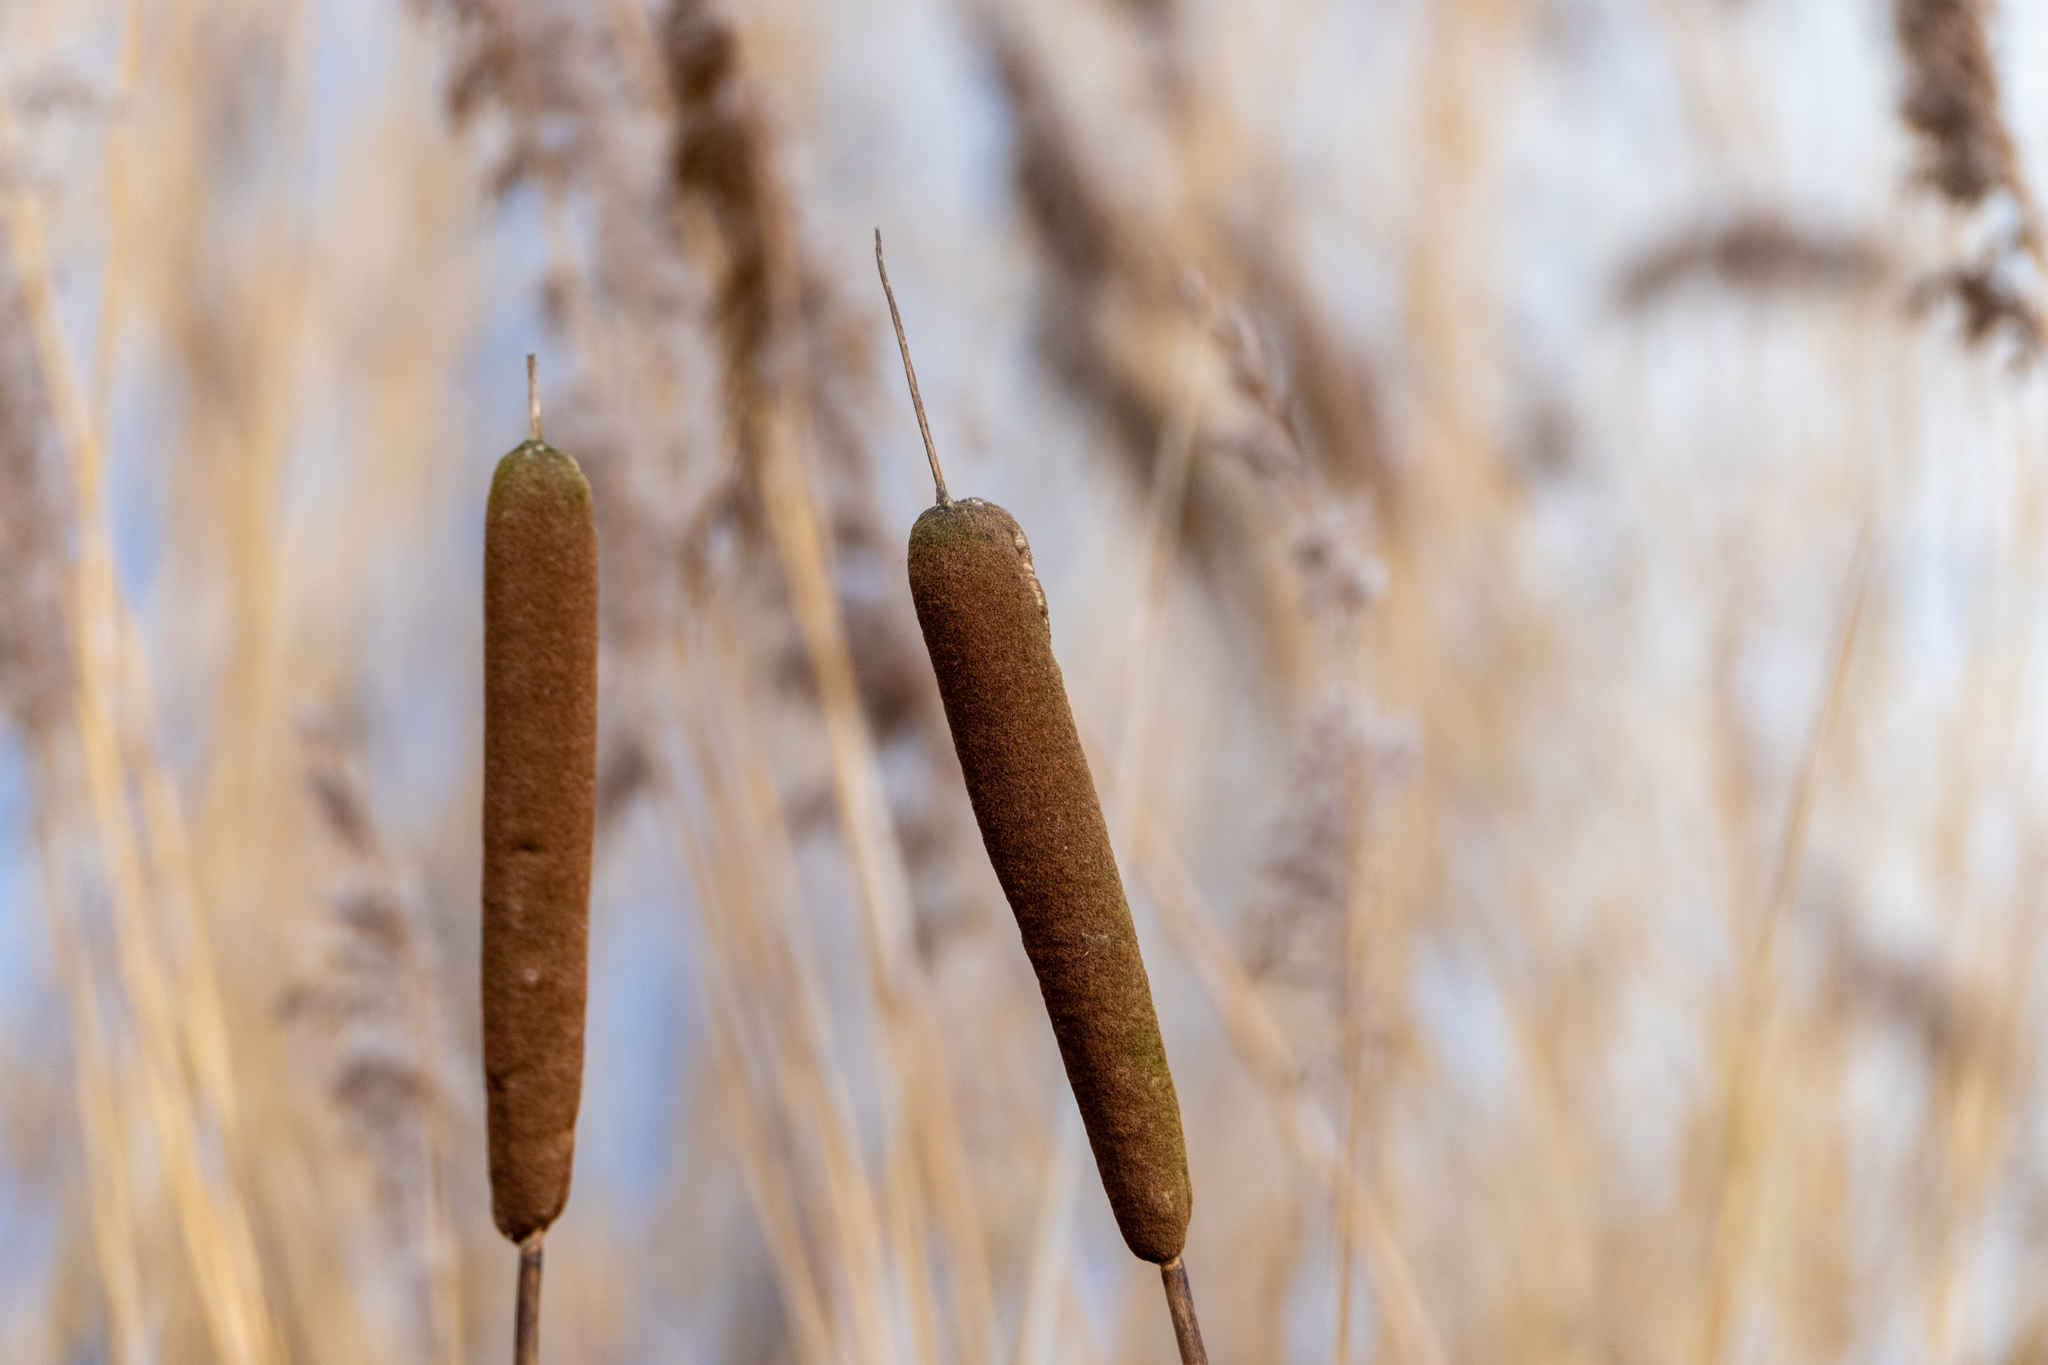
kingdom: Plantae
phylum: Tracheophyta
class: Liliopsida
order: Poales
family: Typhaceae
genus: Typha
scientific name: Typha latifolia
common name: Broadleaf cattail
